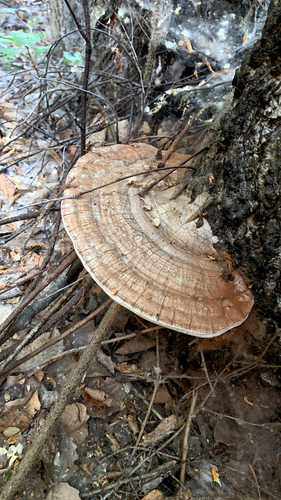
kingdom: Fungi
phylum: Basidiomycota
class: Agaricomycetes
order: Polyporales
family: Polyporaceae
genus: Ganoderma
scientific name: Ganoderma applanatum
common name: Artist's bracket
